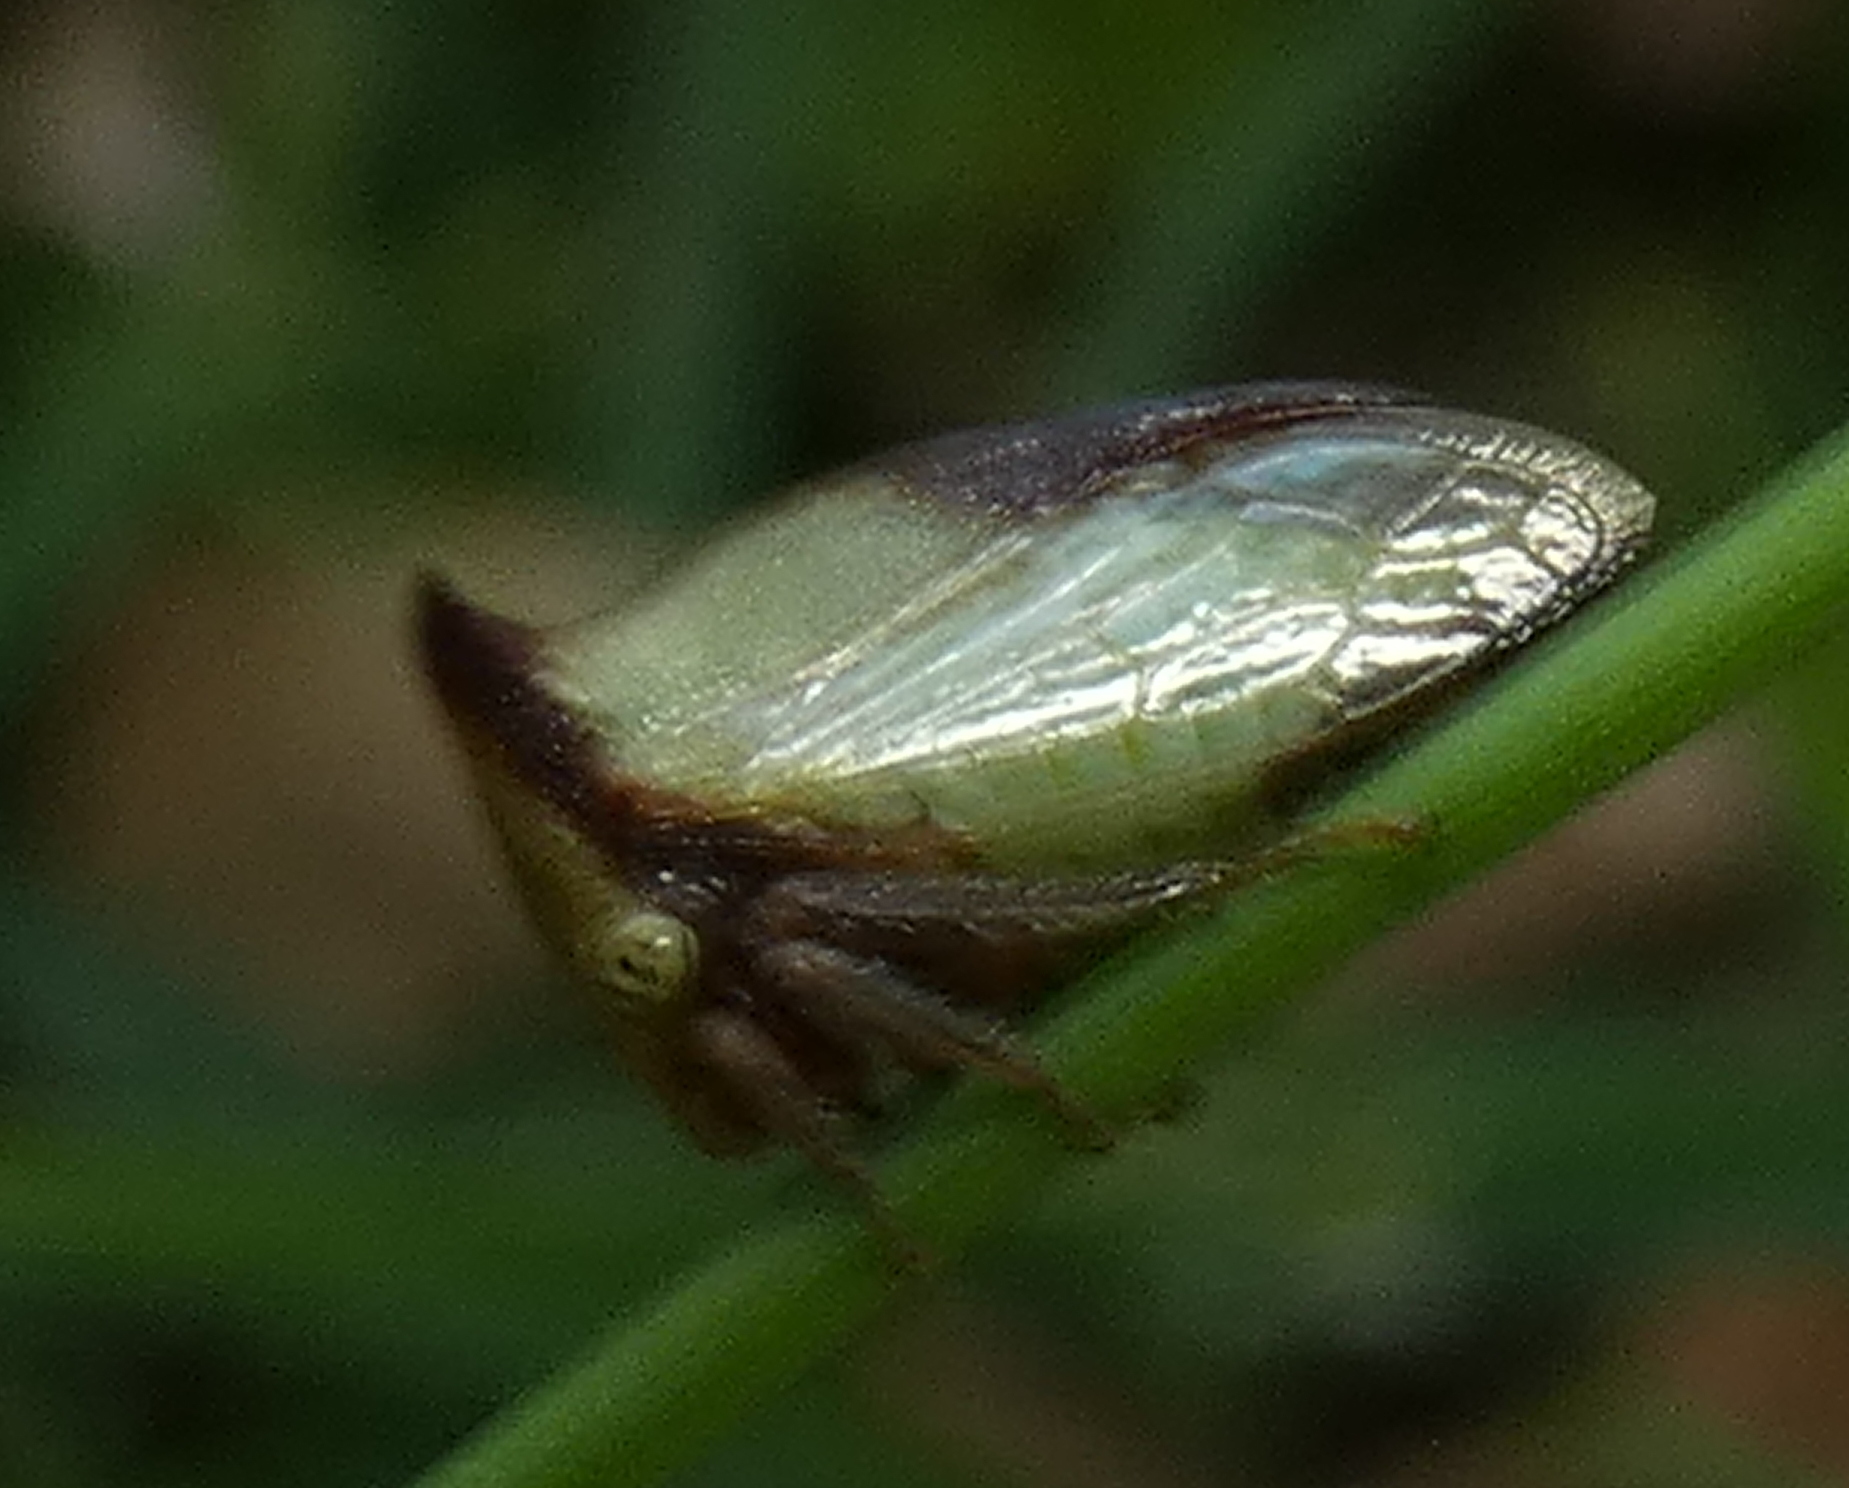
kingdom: Animalia
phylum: Arthropoda
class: Insecta
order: Hemiptera
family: Membracidae
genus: Ceresa
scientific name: Ceresa ustulata
